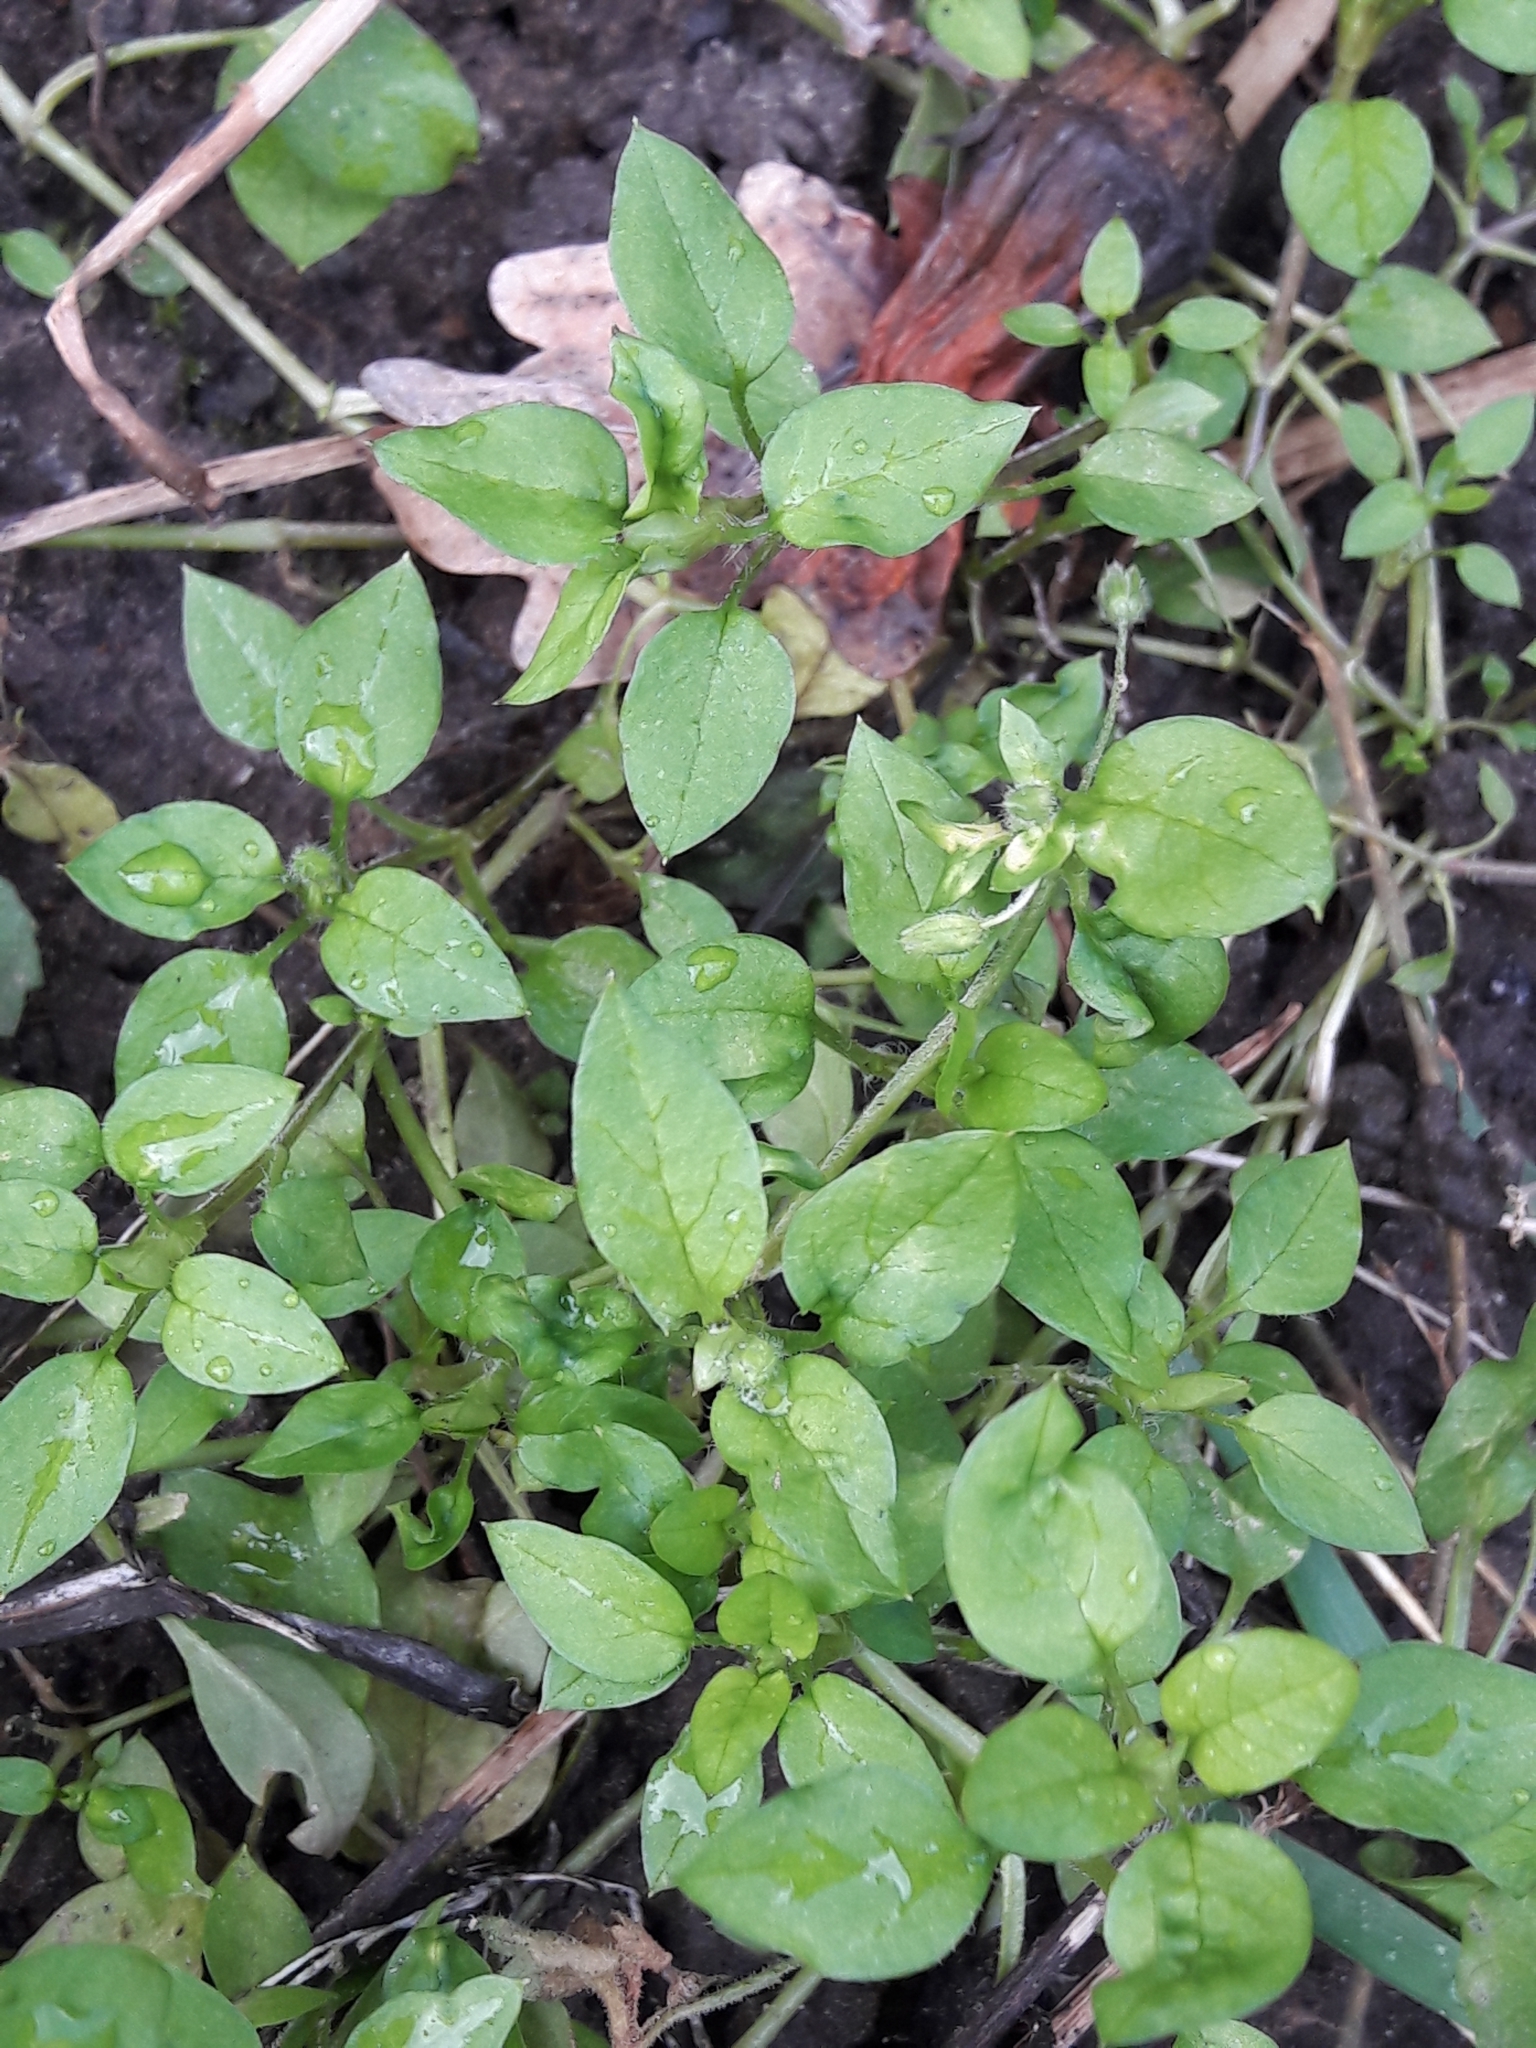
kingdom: Plantae
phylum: Tracheophyta
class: Magnoliopsida
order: Caryophyllales
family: Caryophyllaceae
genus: Stellaria
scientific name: Stellaria media
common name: Common chickweed
